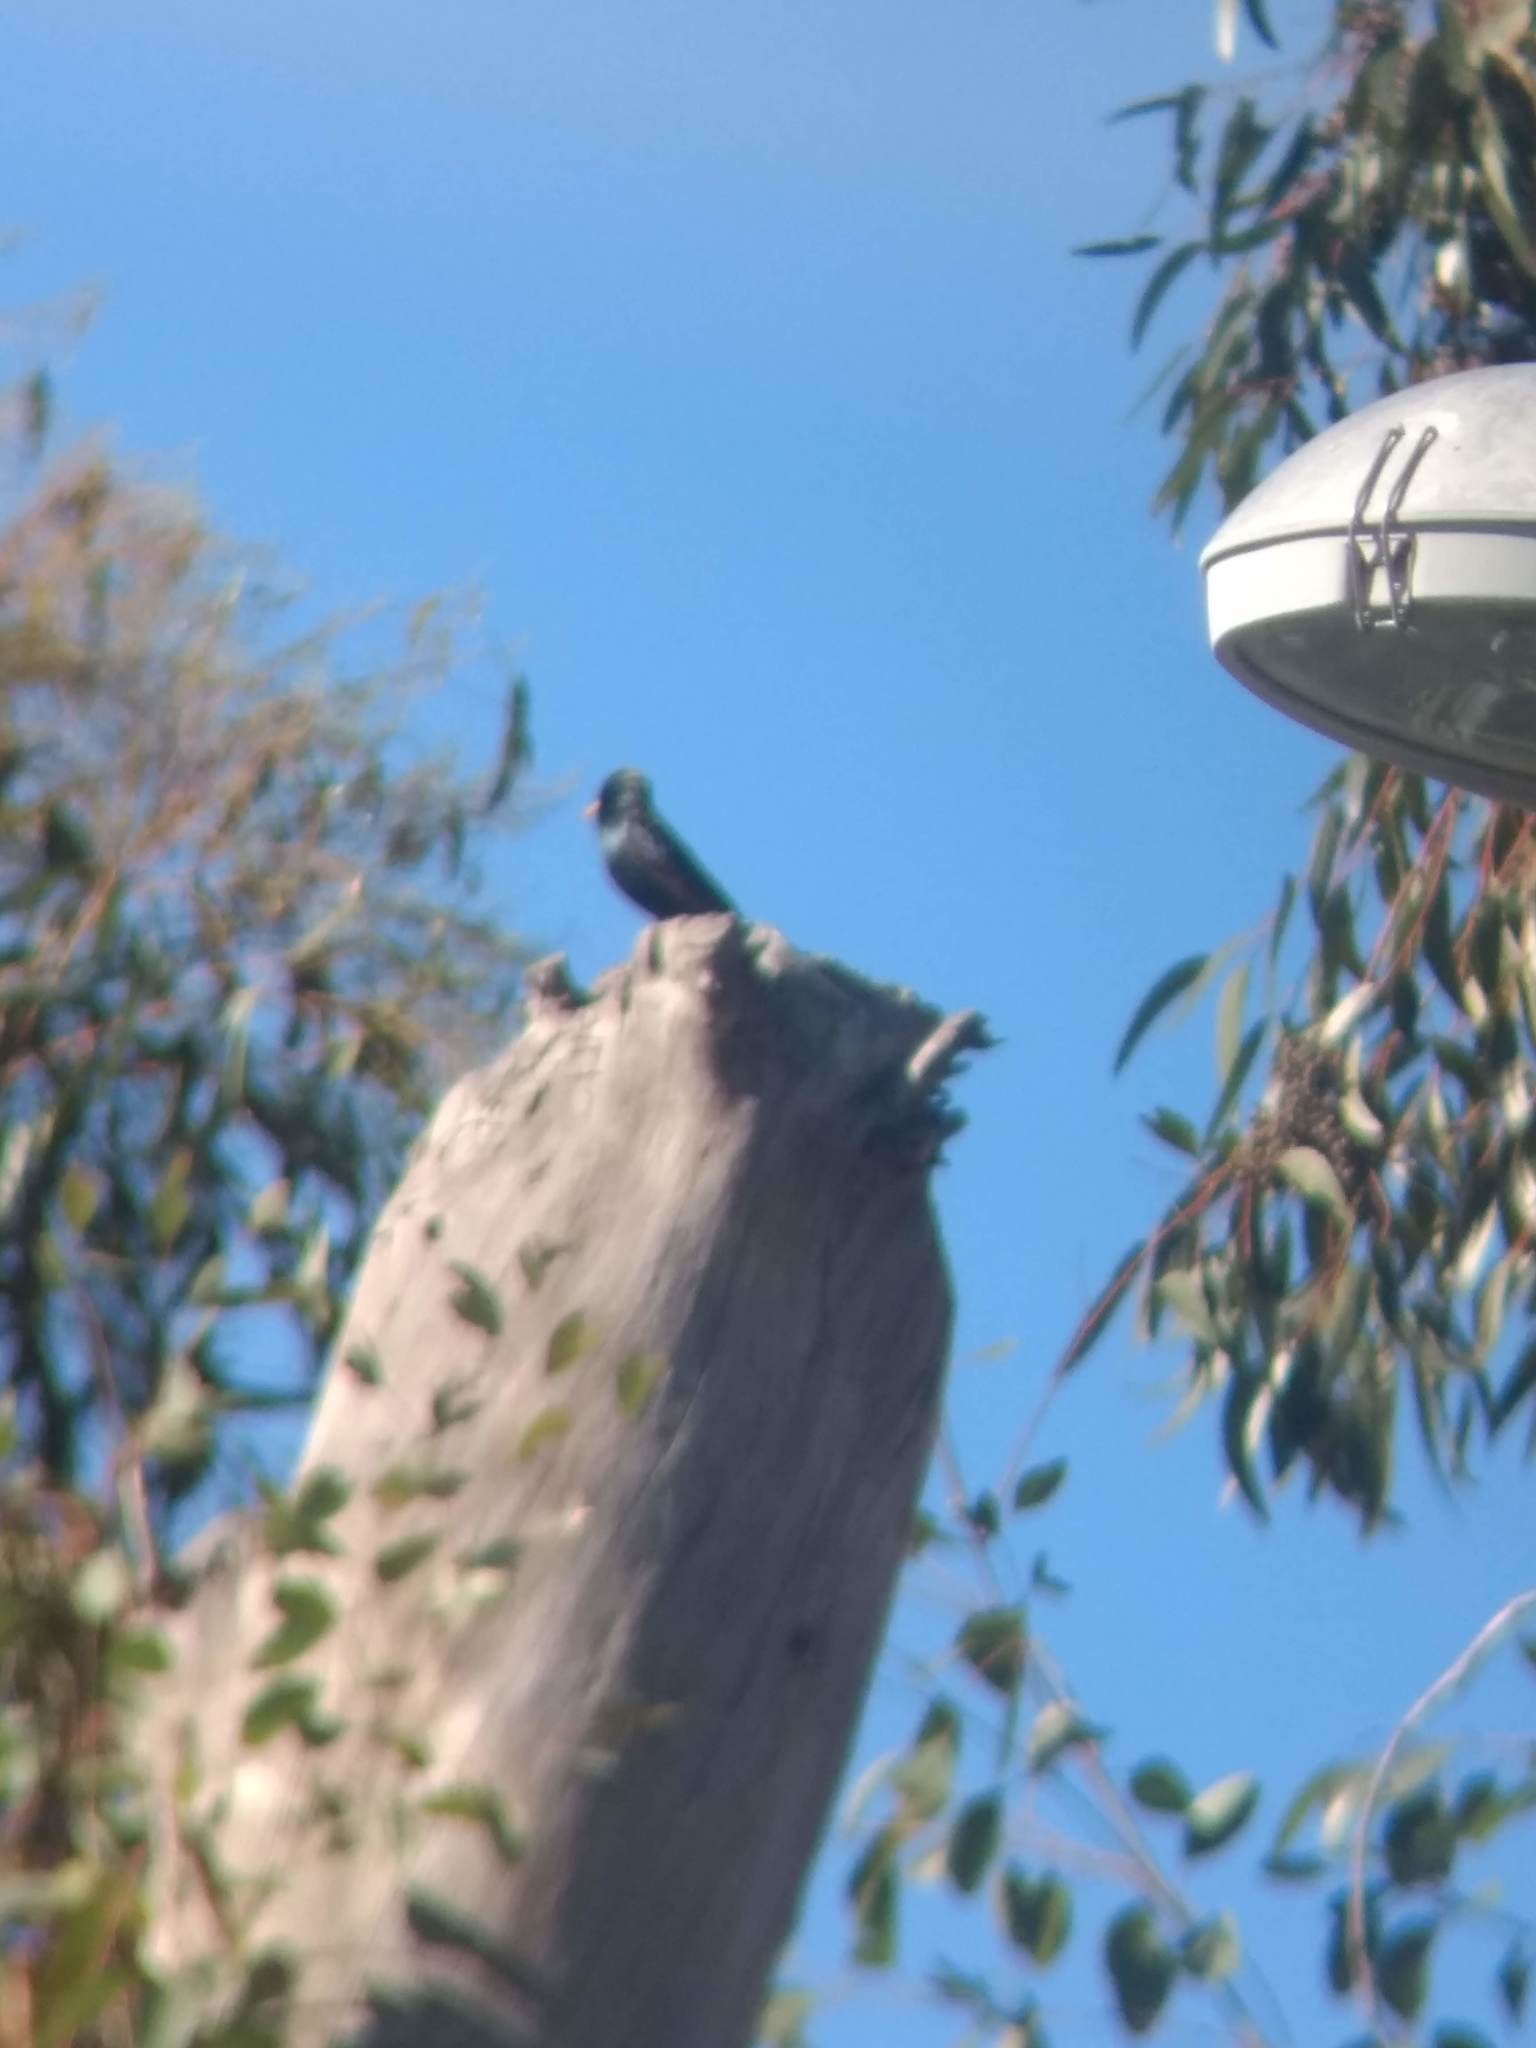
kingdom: Animalia
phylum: Chordata
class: Aves
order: Passeriformes
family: Sturnidae
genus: Sturnus
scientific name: Sturnus vulgaris
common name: Common starling
